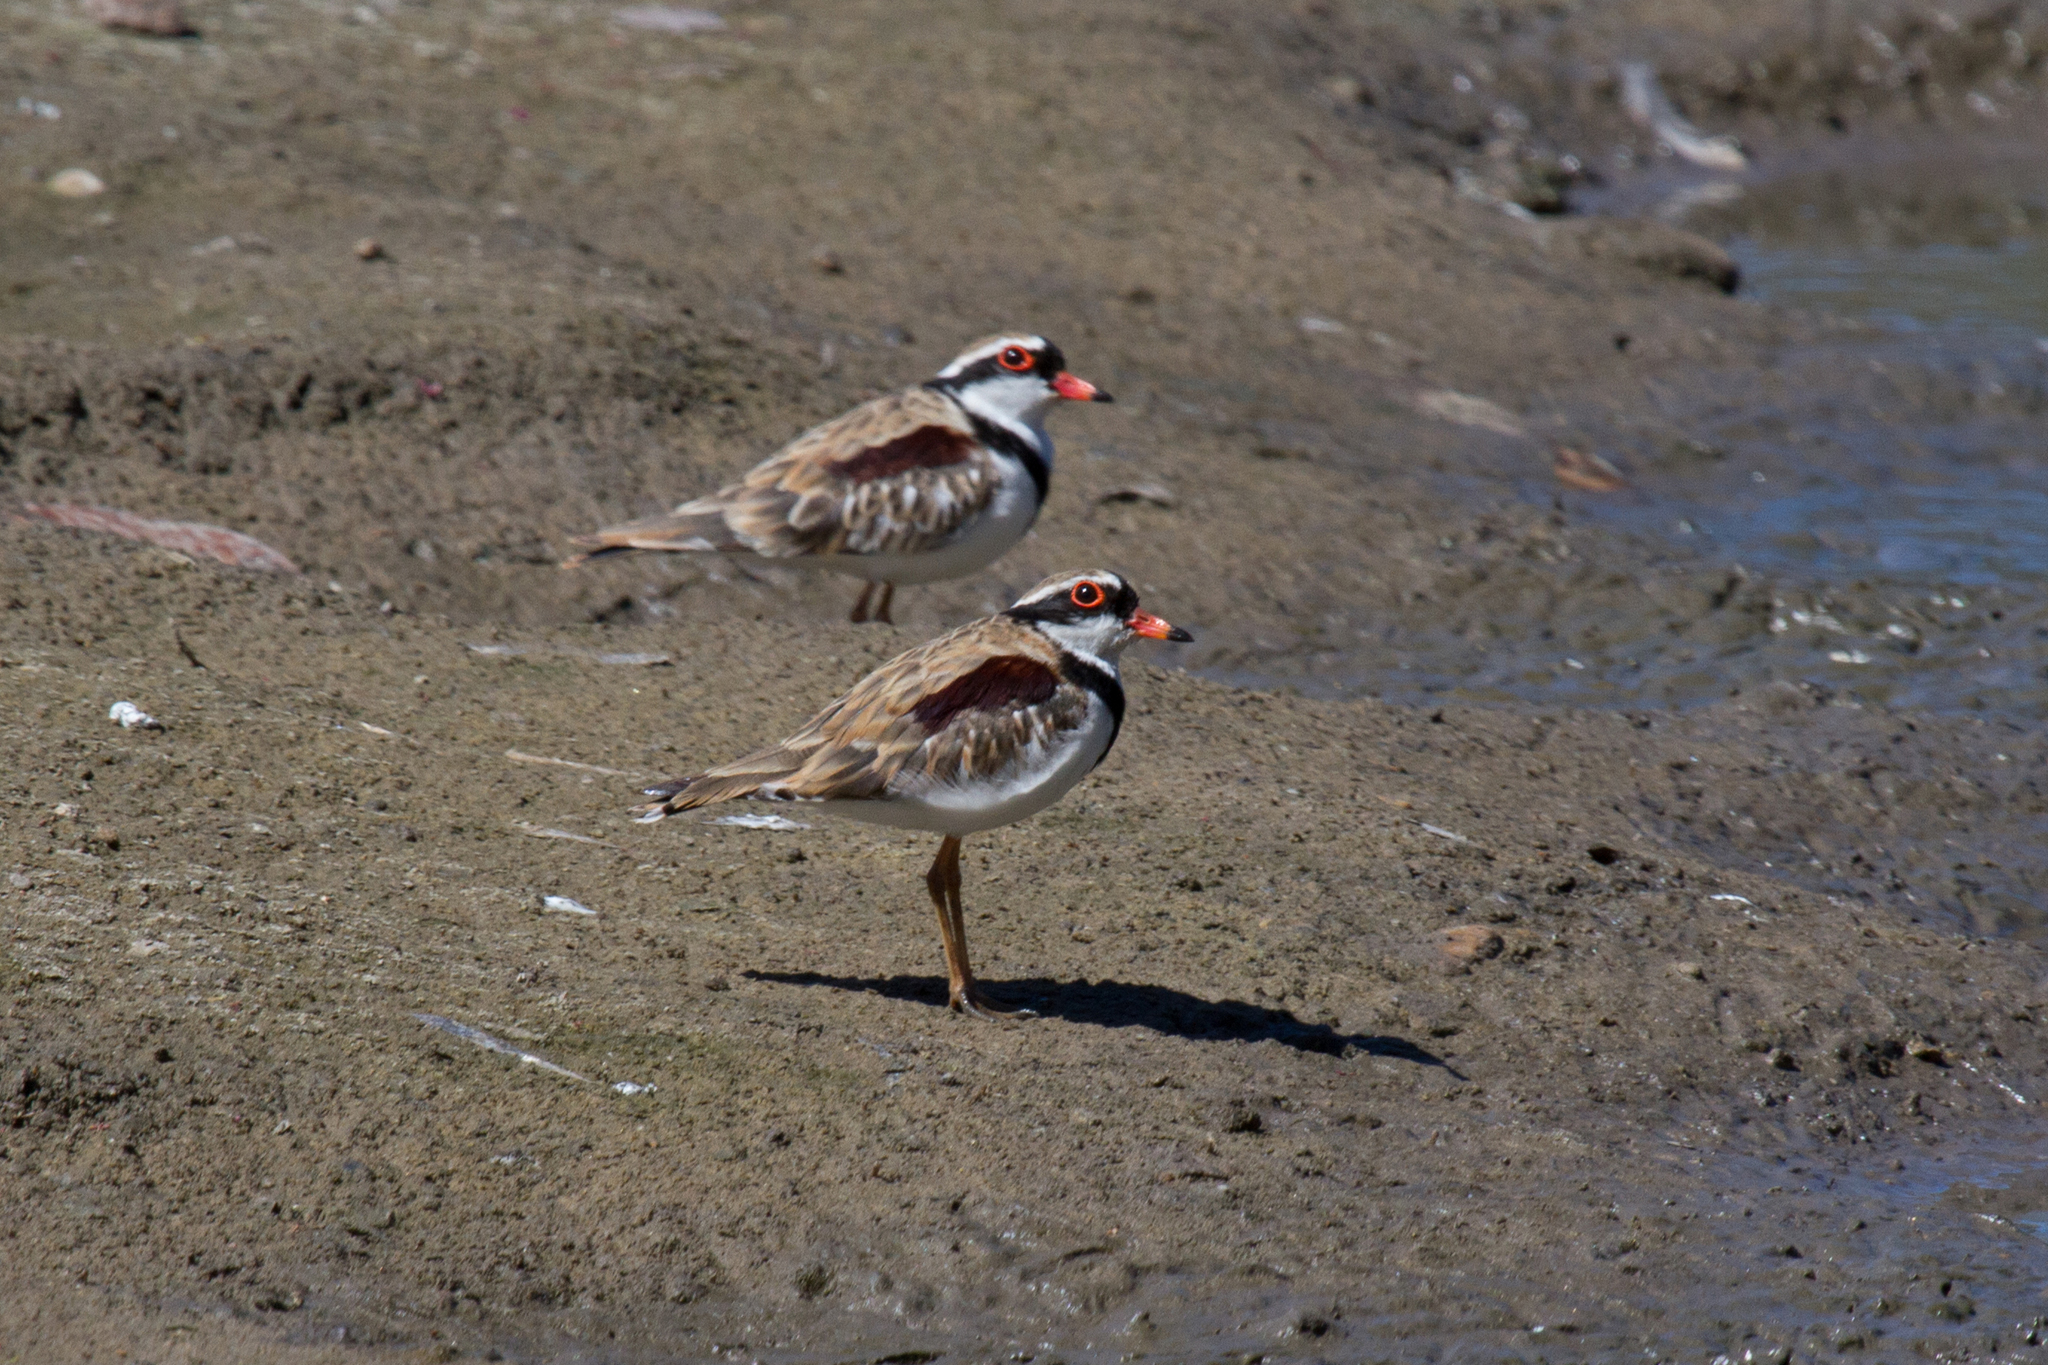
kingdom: Animalia
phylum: Chordata
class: Aves
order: Charadriiformes
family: Charadriidae
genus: Elseyornis
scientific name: Elseyornis melanops
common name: Black-fronted dotterel
